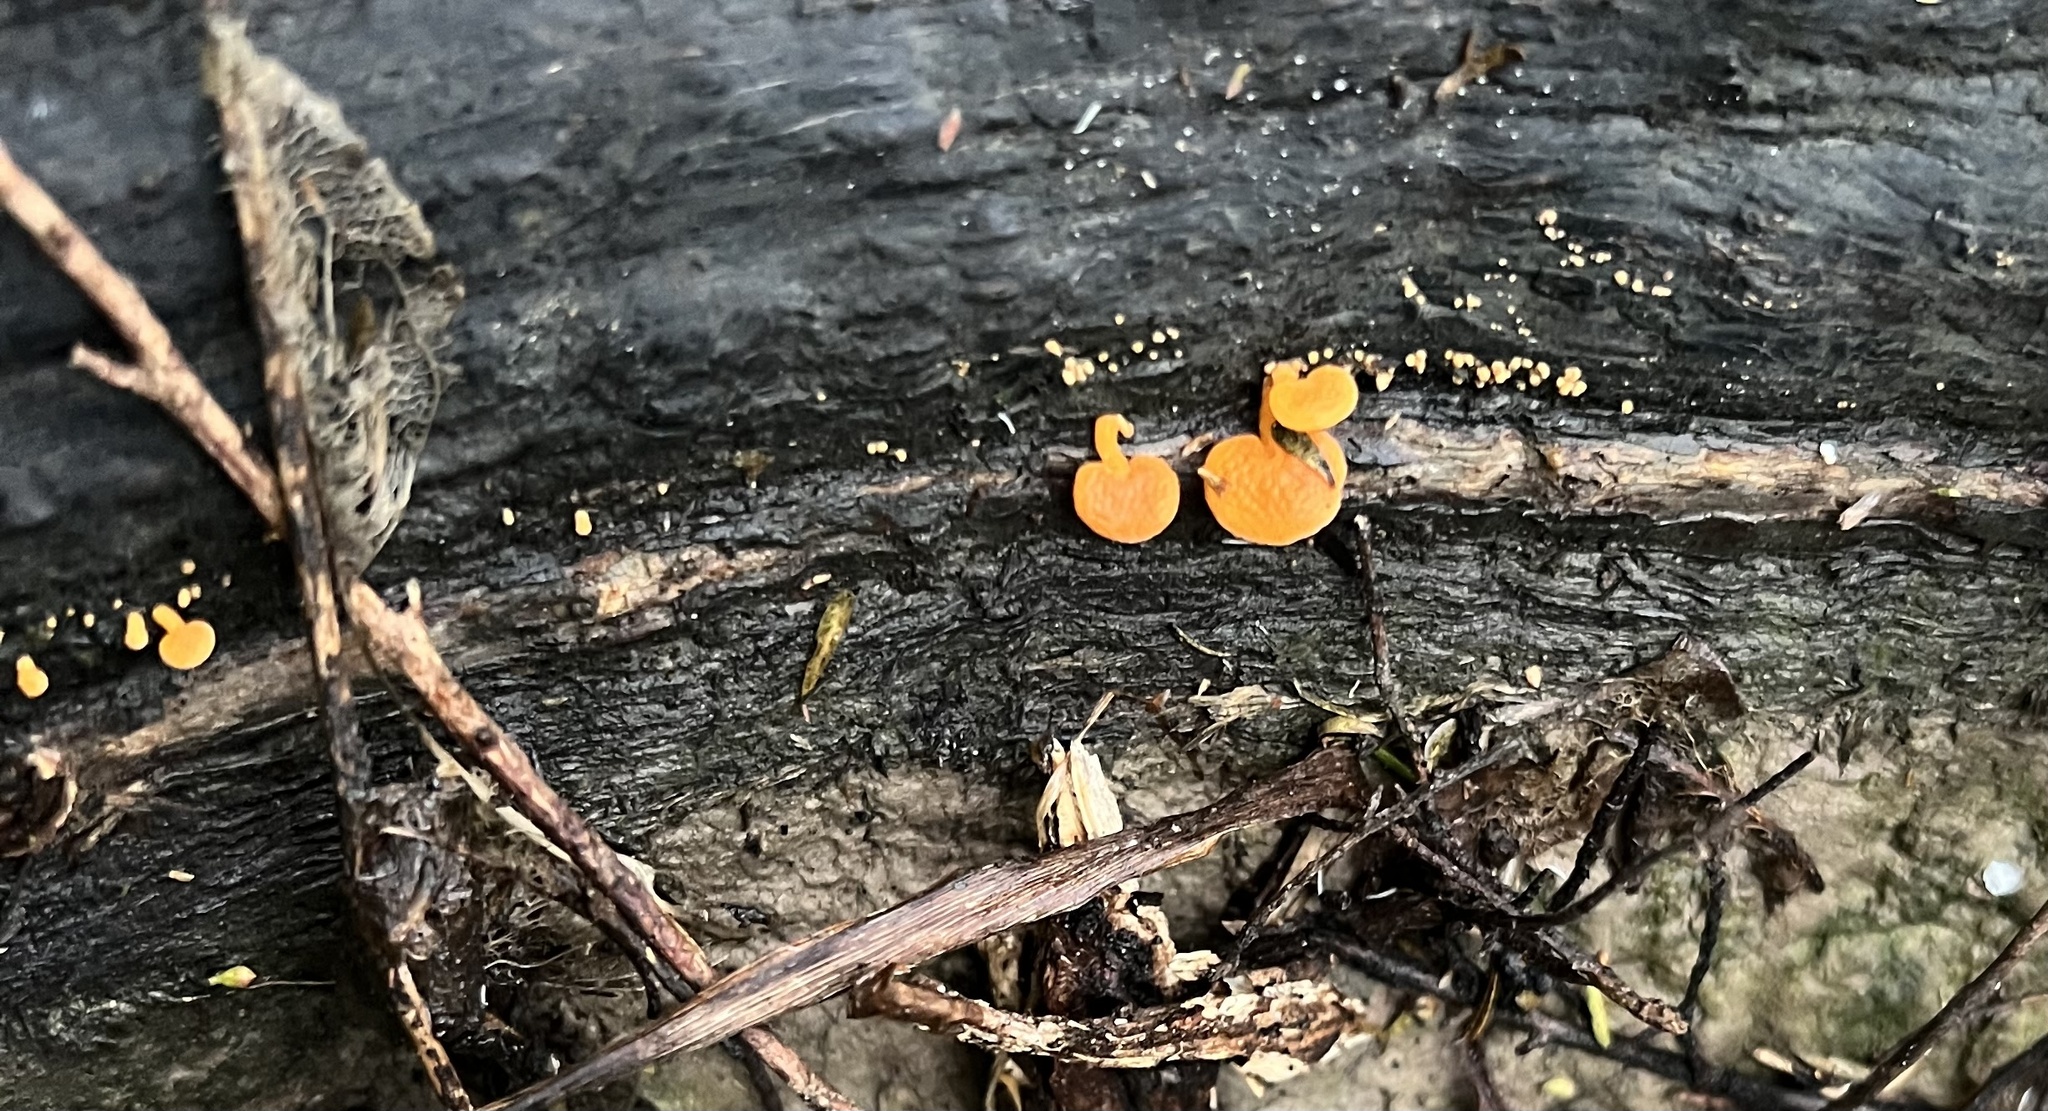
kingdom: Fungi
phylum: Basidiomycota
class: Agaricomycetes
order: Agaricales
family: Mycenaceae
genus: Favolaschia
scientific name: Favolaschia claudopus
